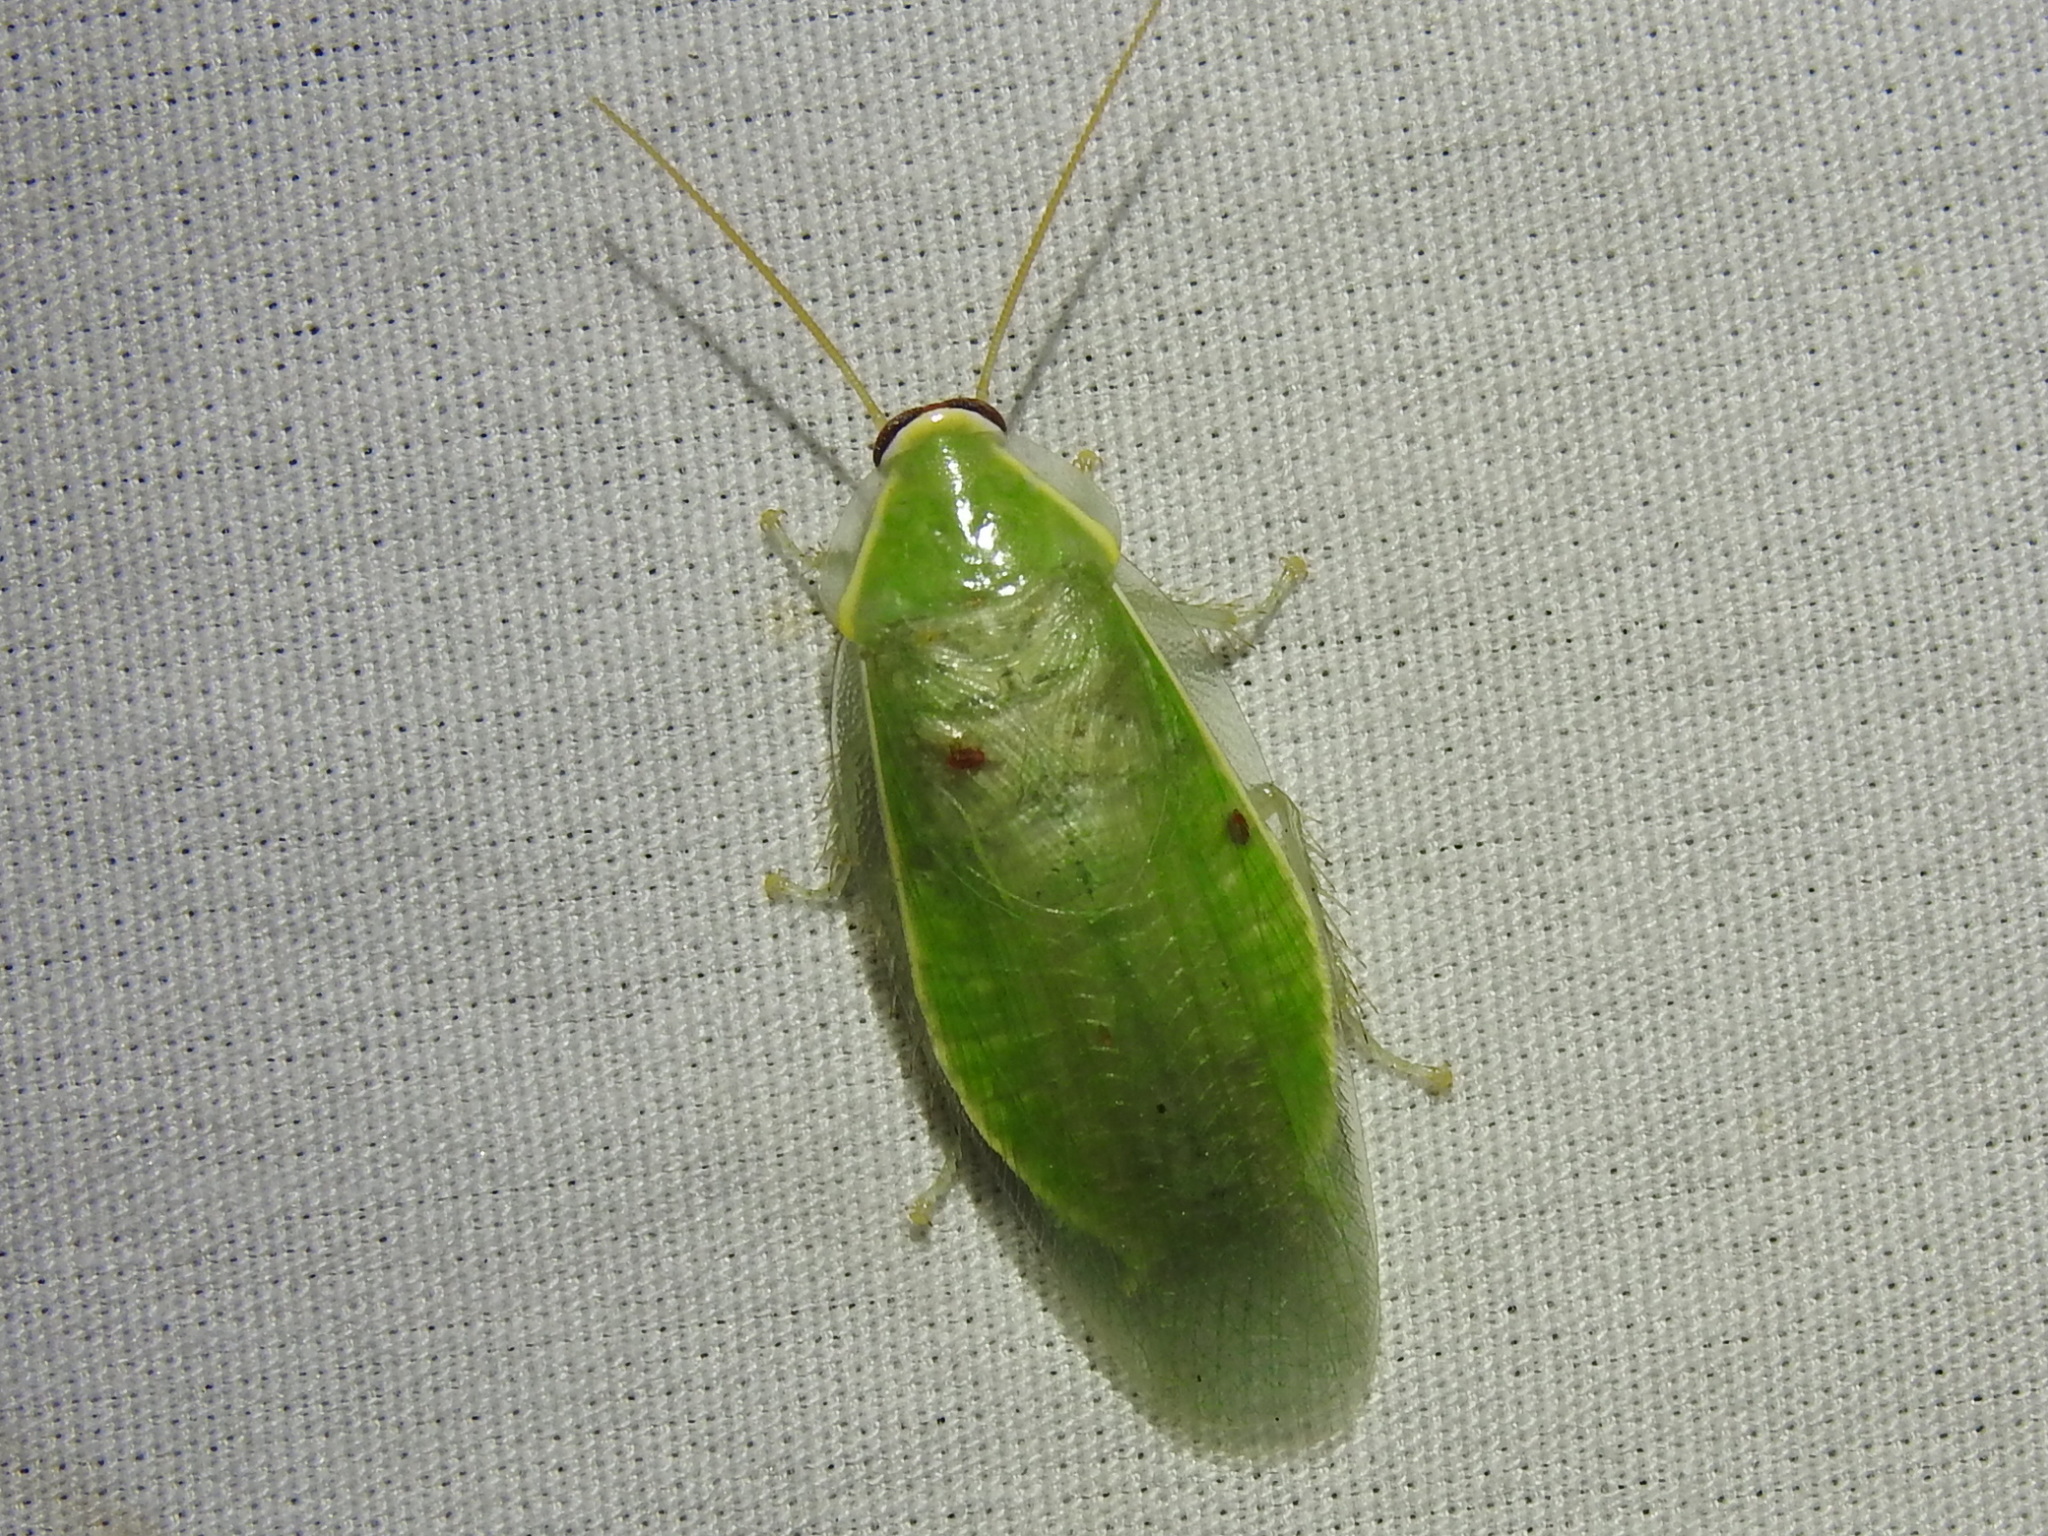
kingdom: Animalia
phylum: Arthropoda
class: Insecta
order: Blattodea
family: Blaberidae
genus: Panchlora
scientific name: Panchlora nivea
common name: Cuban cockroach
